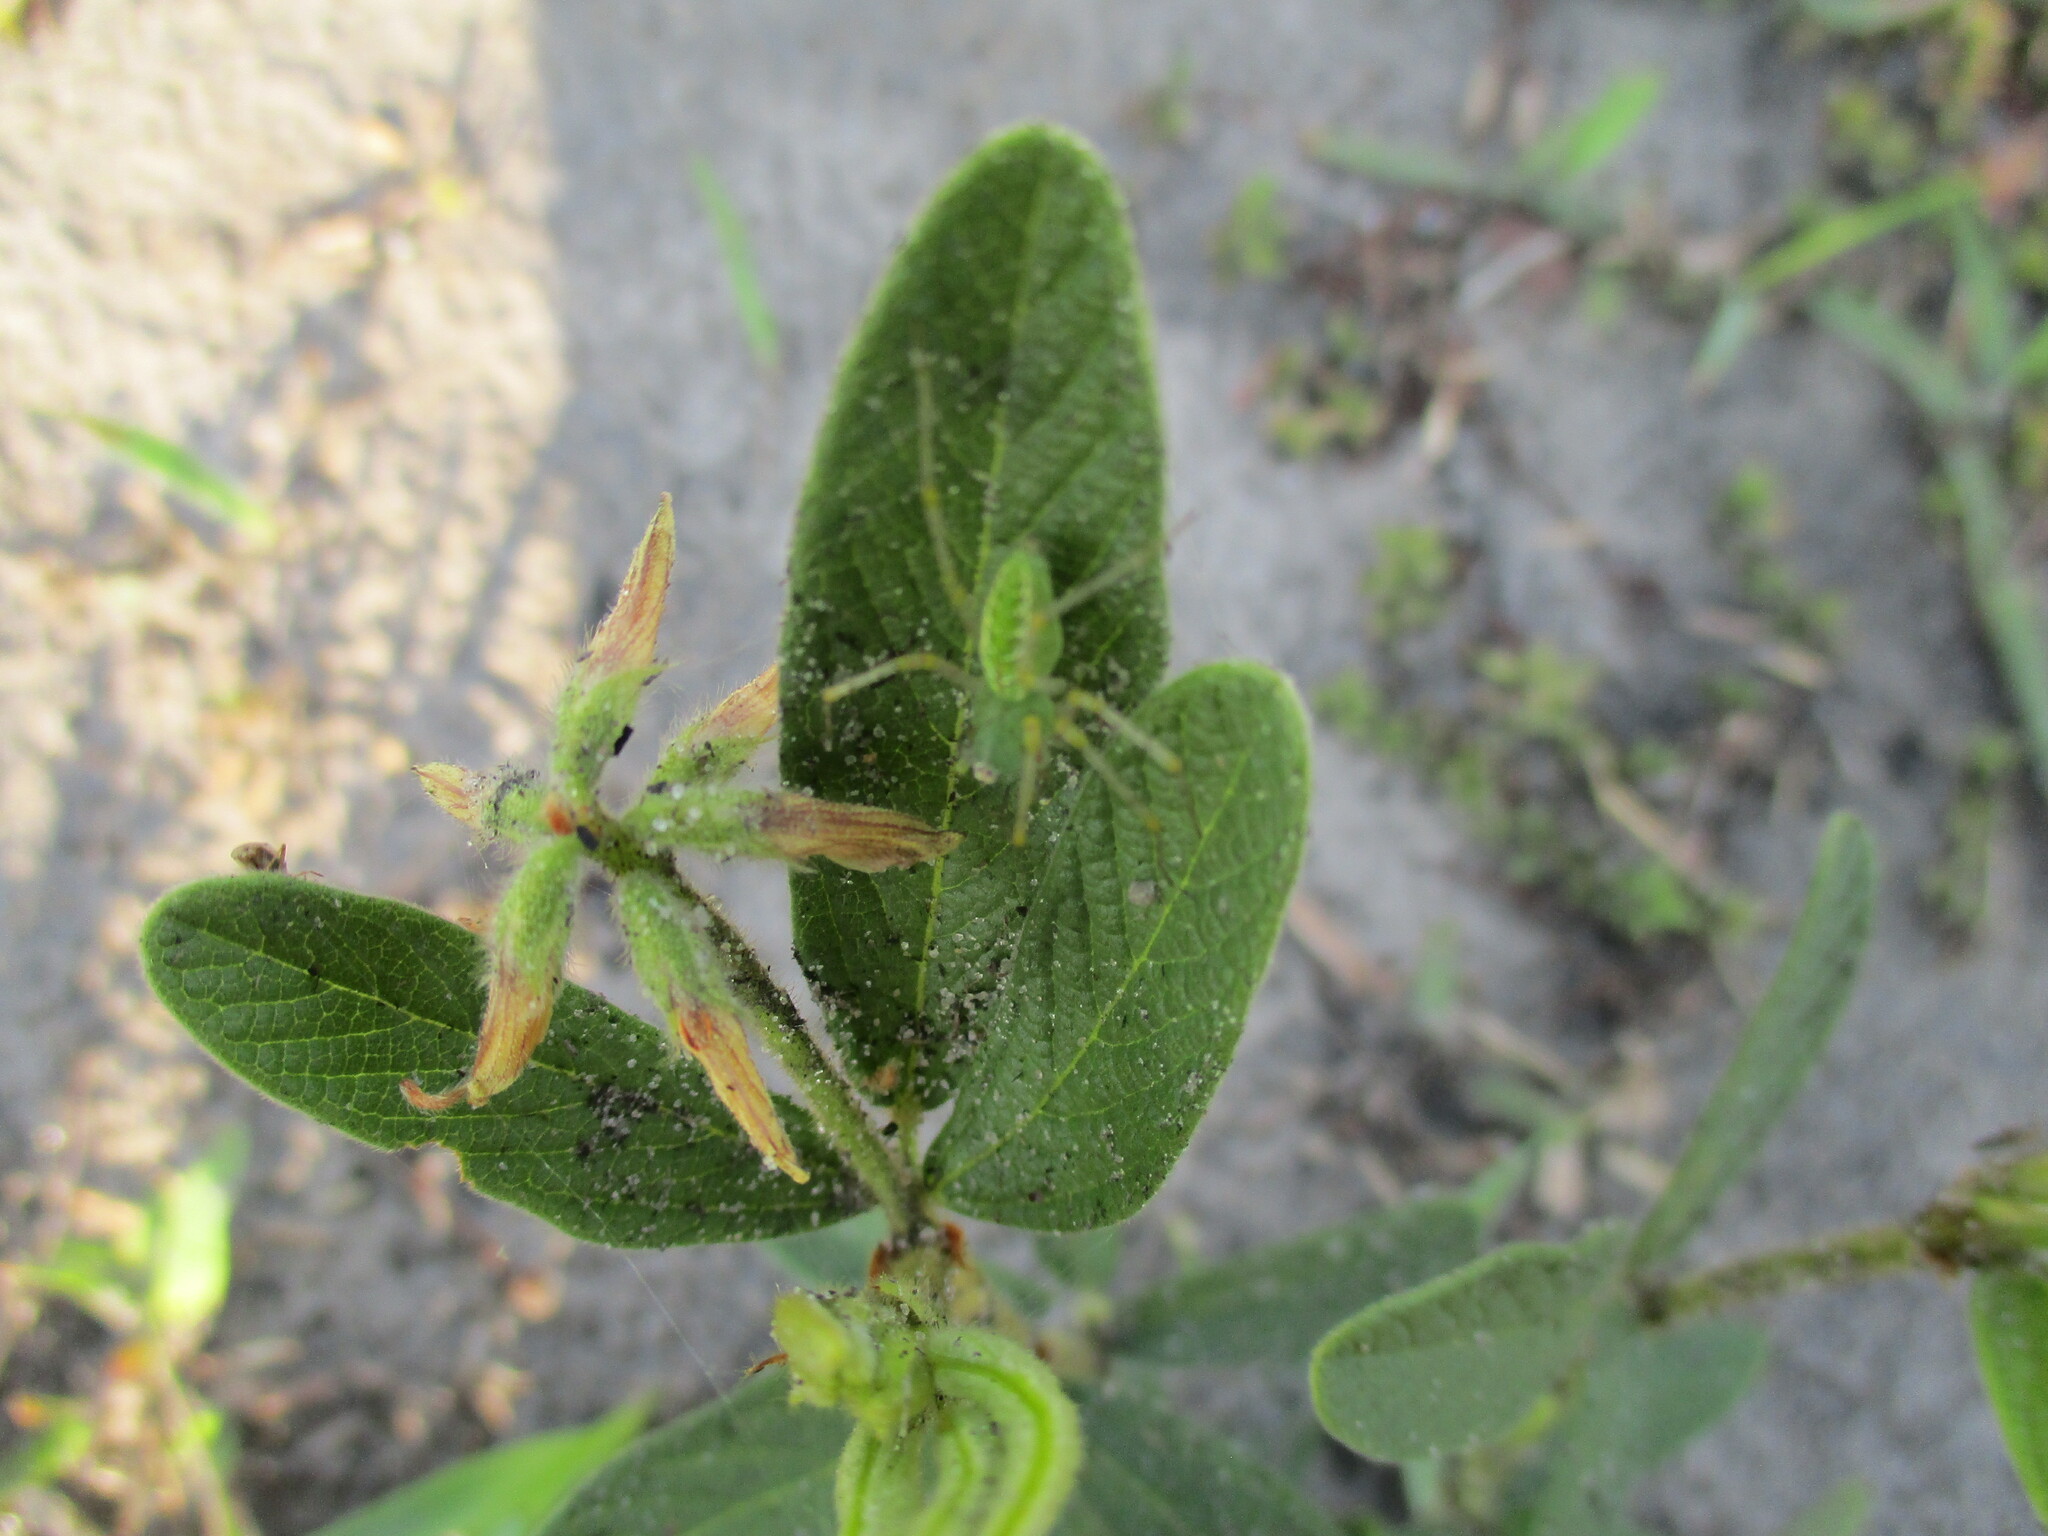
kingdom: Plantae
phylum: Tracheophyta
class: Magnoliopsida
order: Fabales
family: Fabaceae
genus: Eriosema
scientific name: Eriosema pauciflorum
